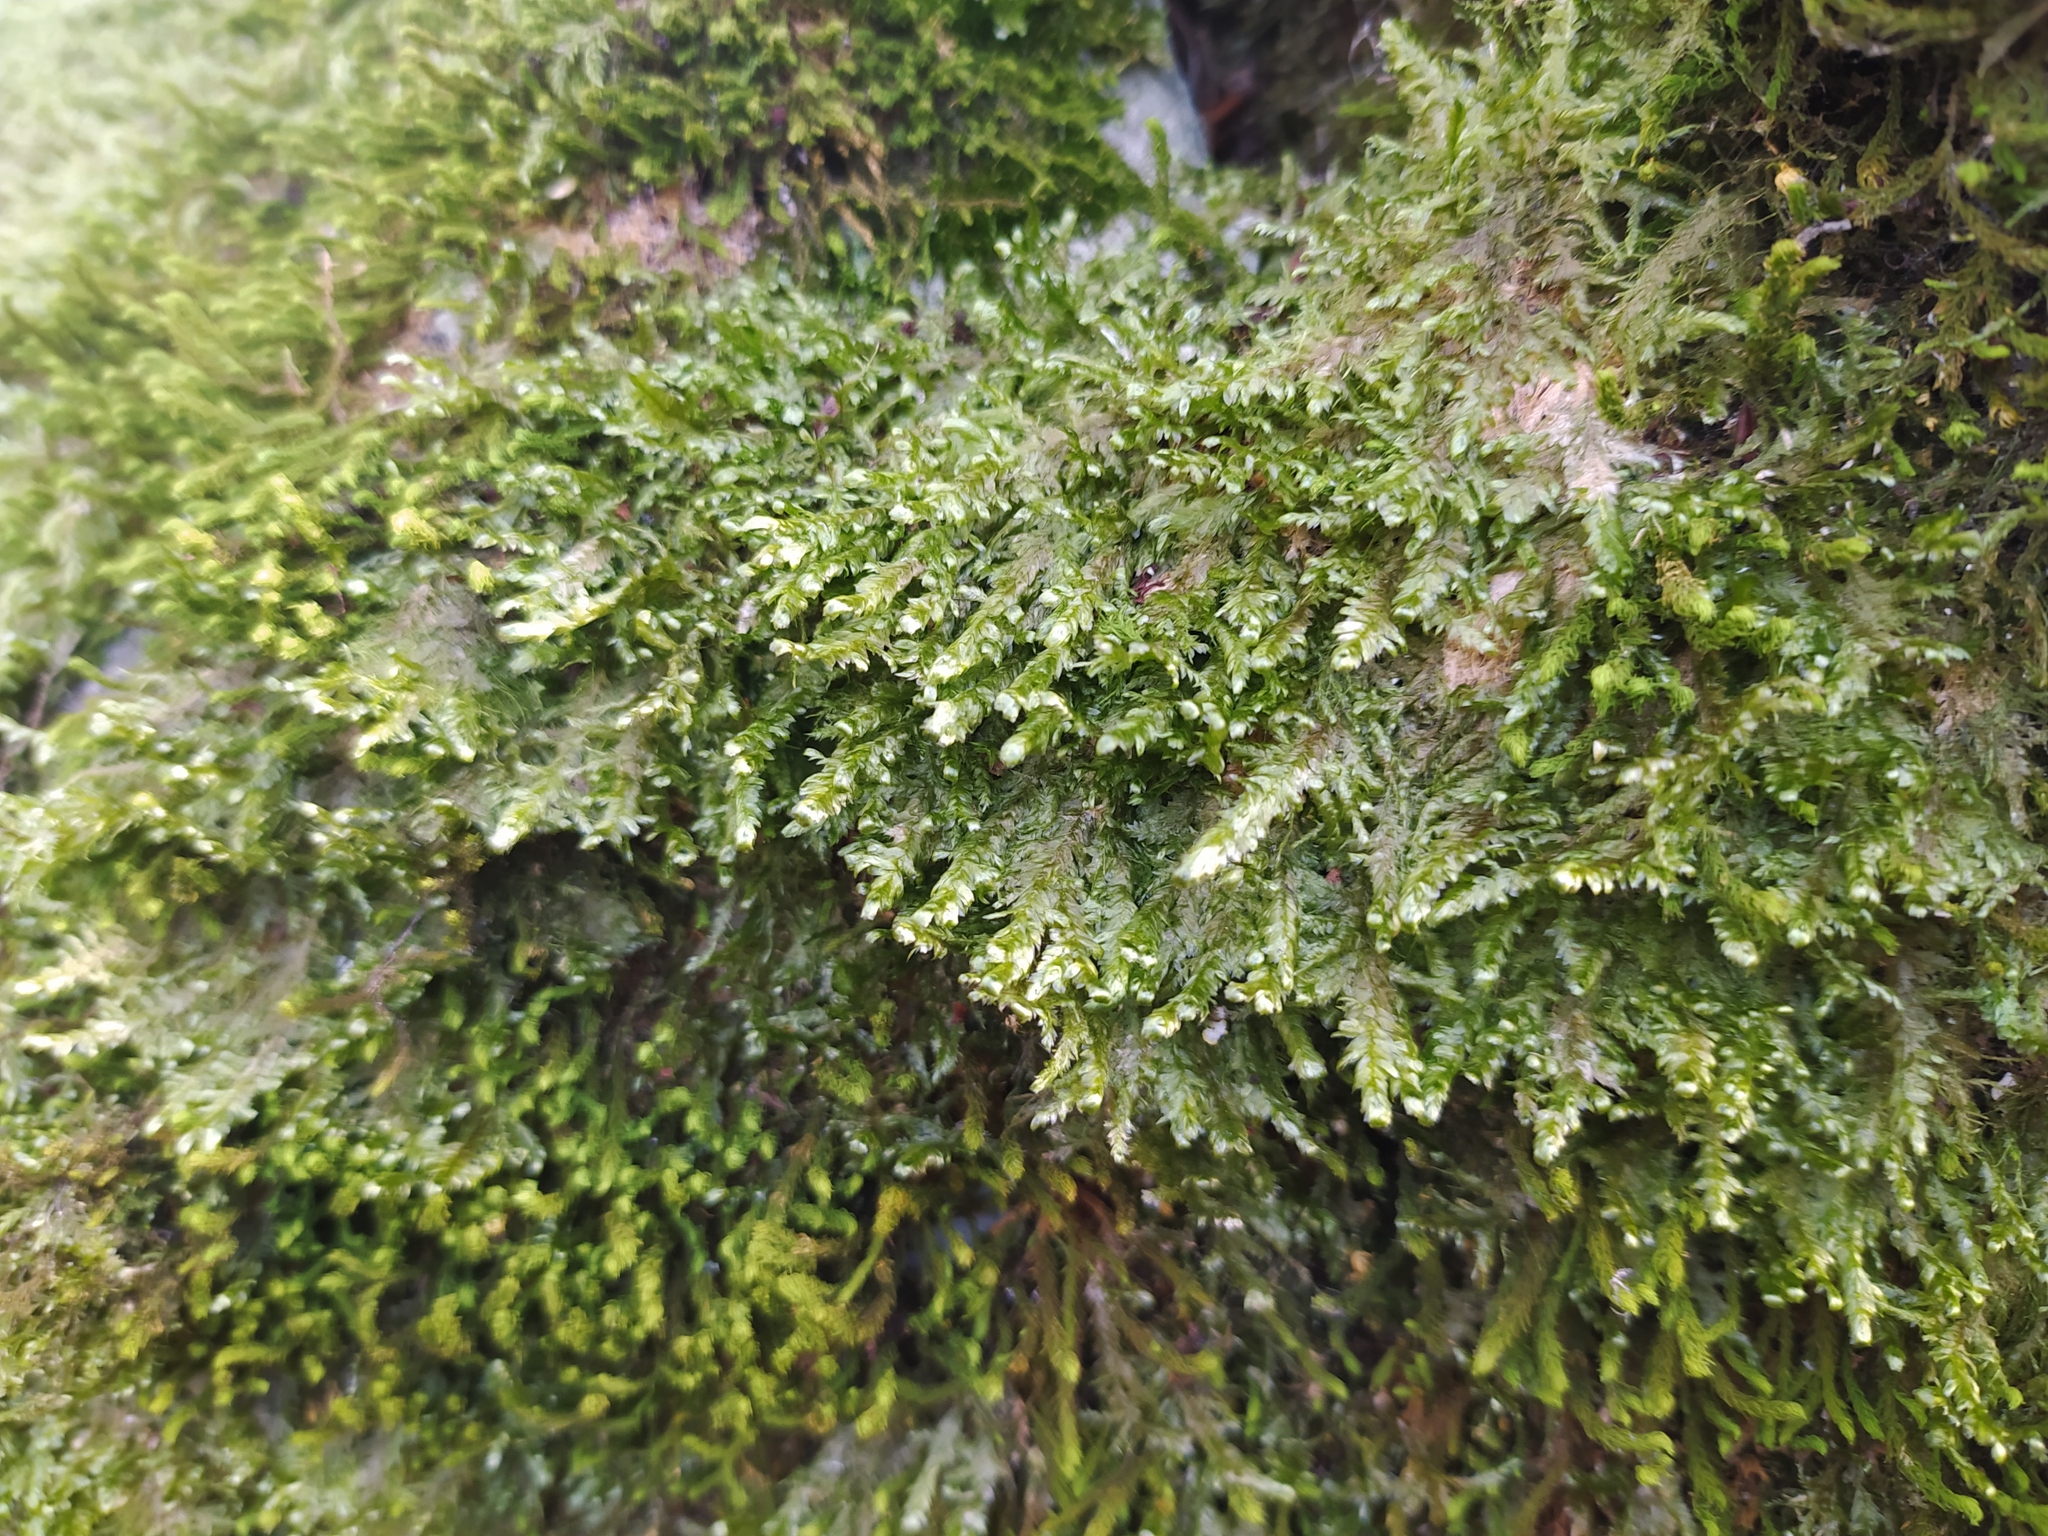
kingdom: Plantae
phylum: Bryophyta
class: Bryopsida
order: Hypnales
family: Neckeraceae
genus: Alleniella
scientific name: Alleniella complanata
